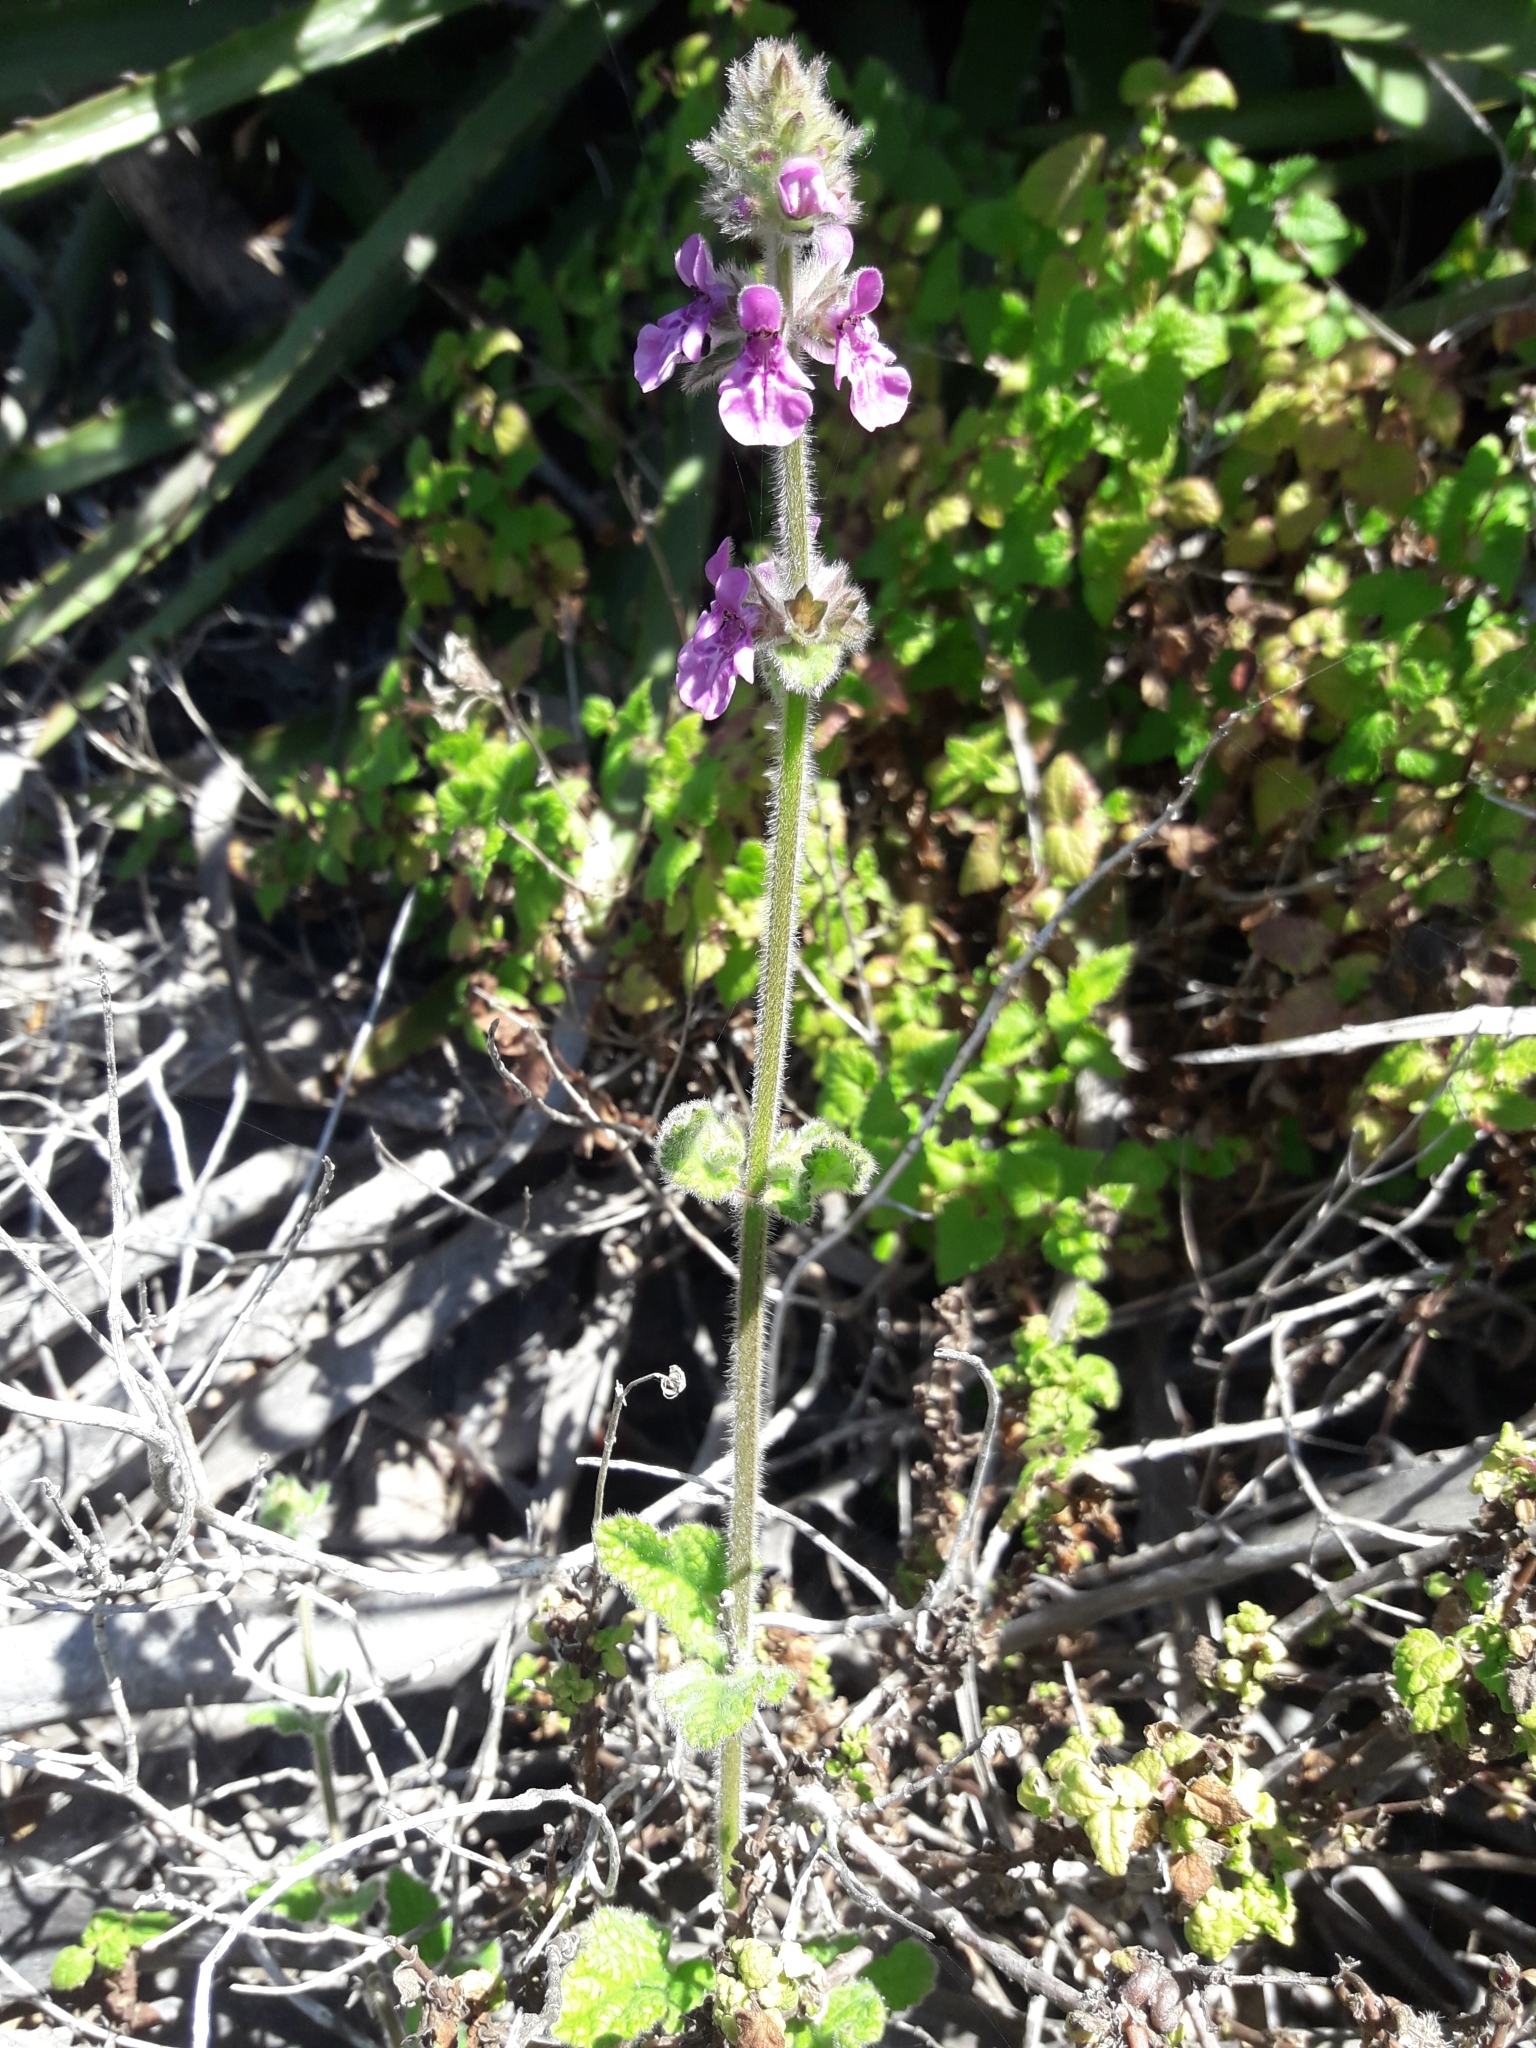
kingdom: Plantae
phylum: Tracheophyta
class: Magnoliopsida
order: Lamiales
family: Lamiaceae
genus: Stachys
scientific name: Stachys grandidentata
